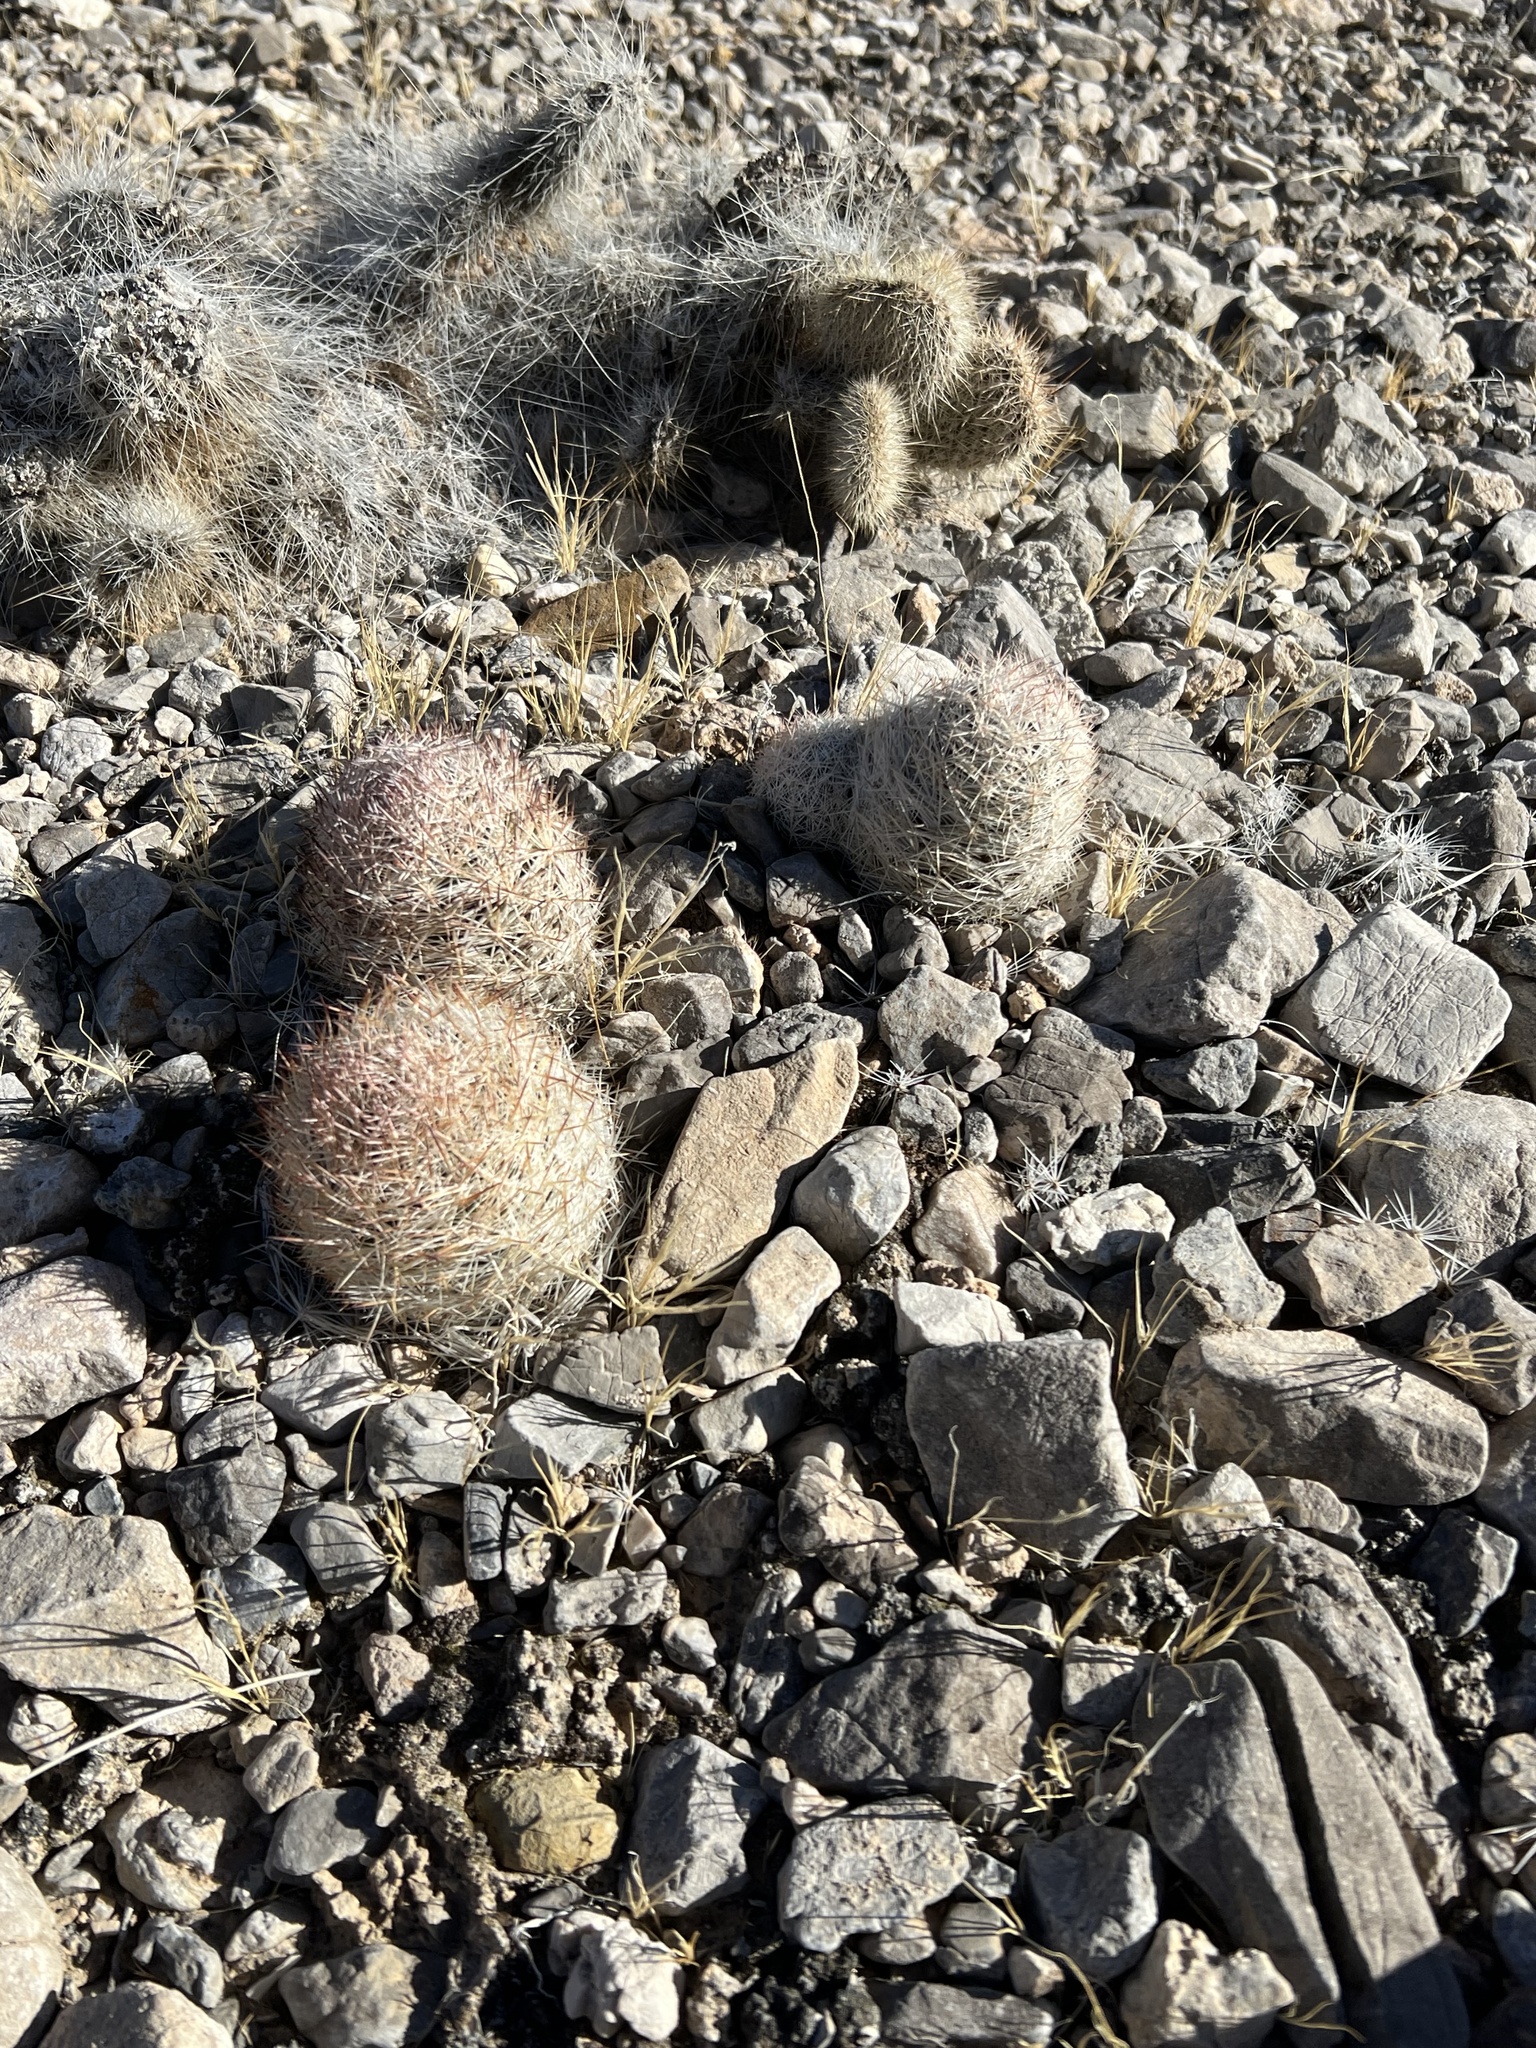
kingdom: Plantae
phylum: Tracheophyta
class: Magnoliopsida
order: Caryophyllales
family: Cactaceae
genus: Pelecyphora
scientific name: Pelecyphora dasyacantha
